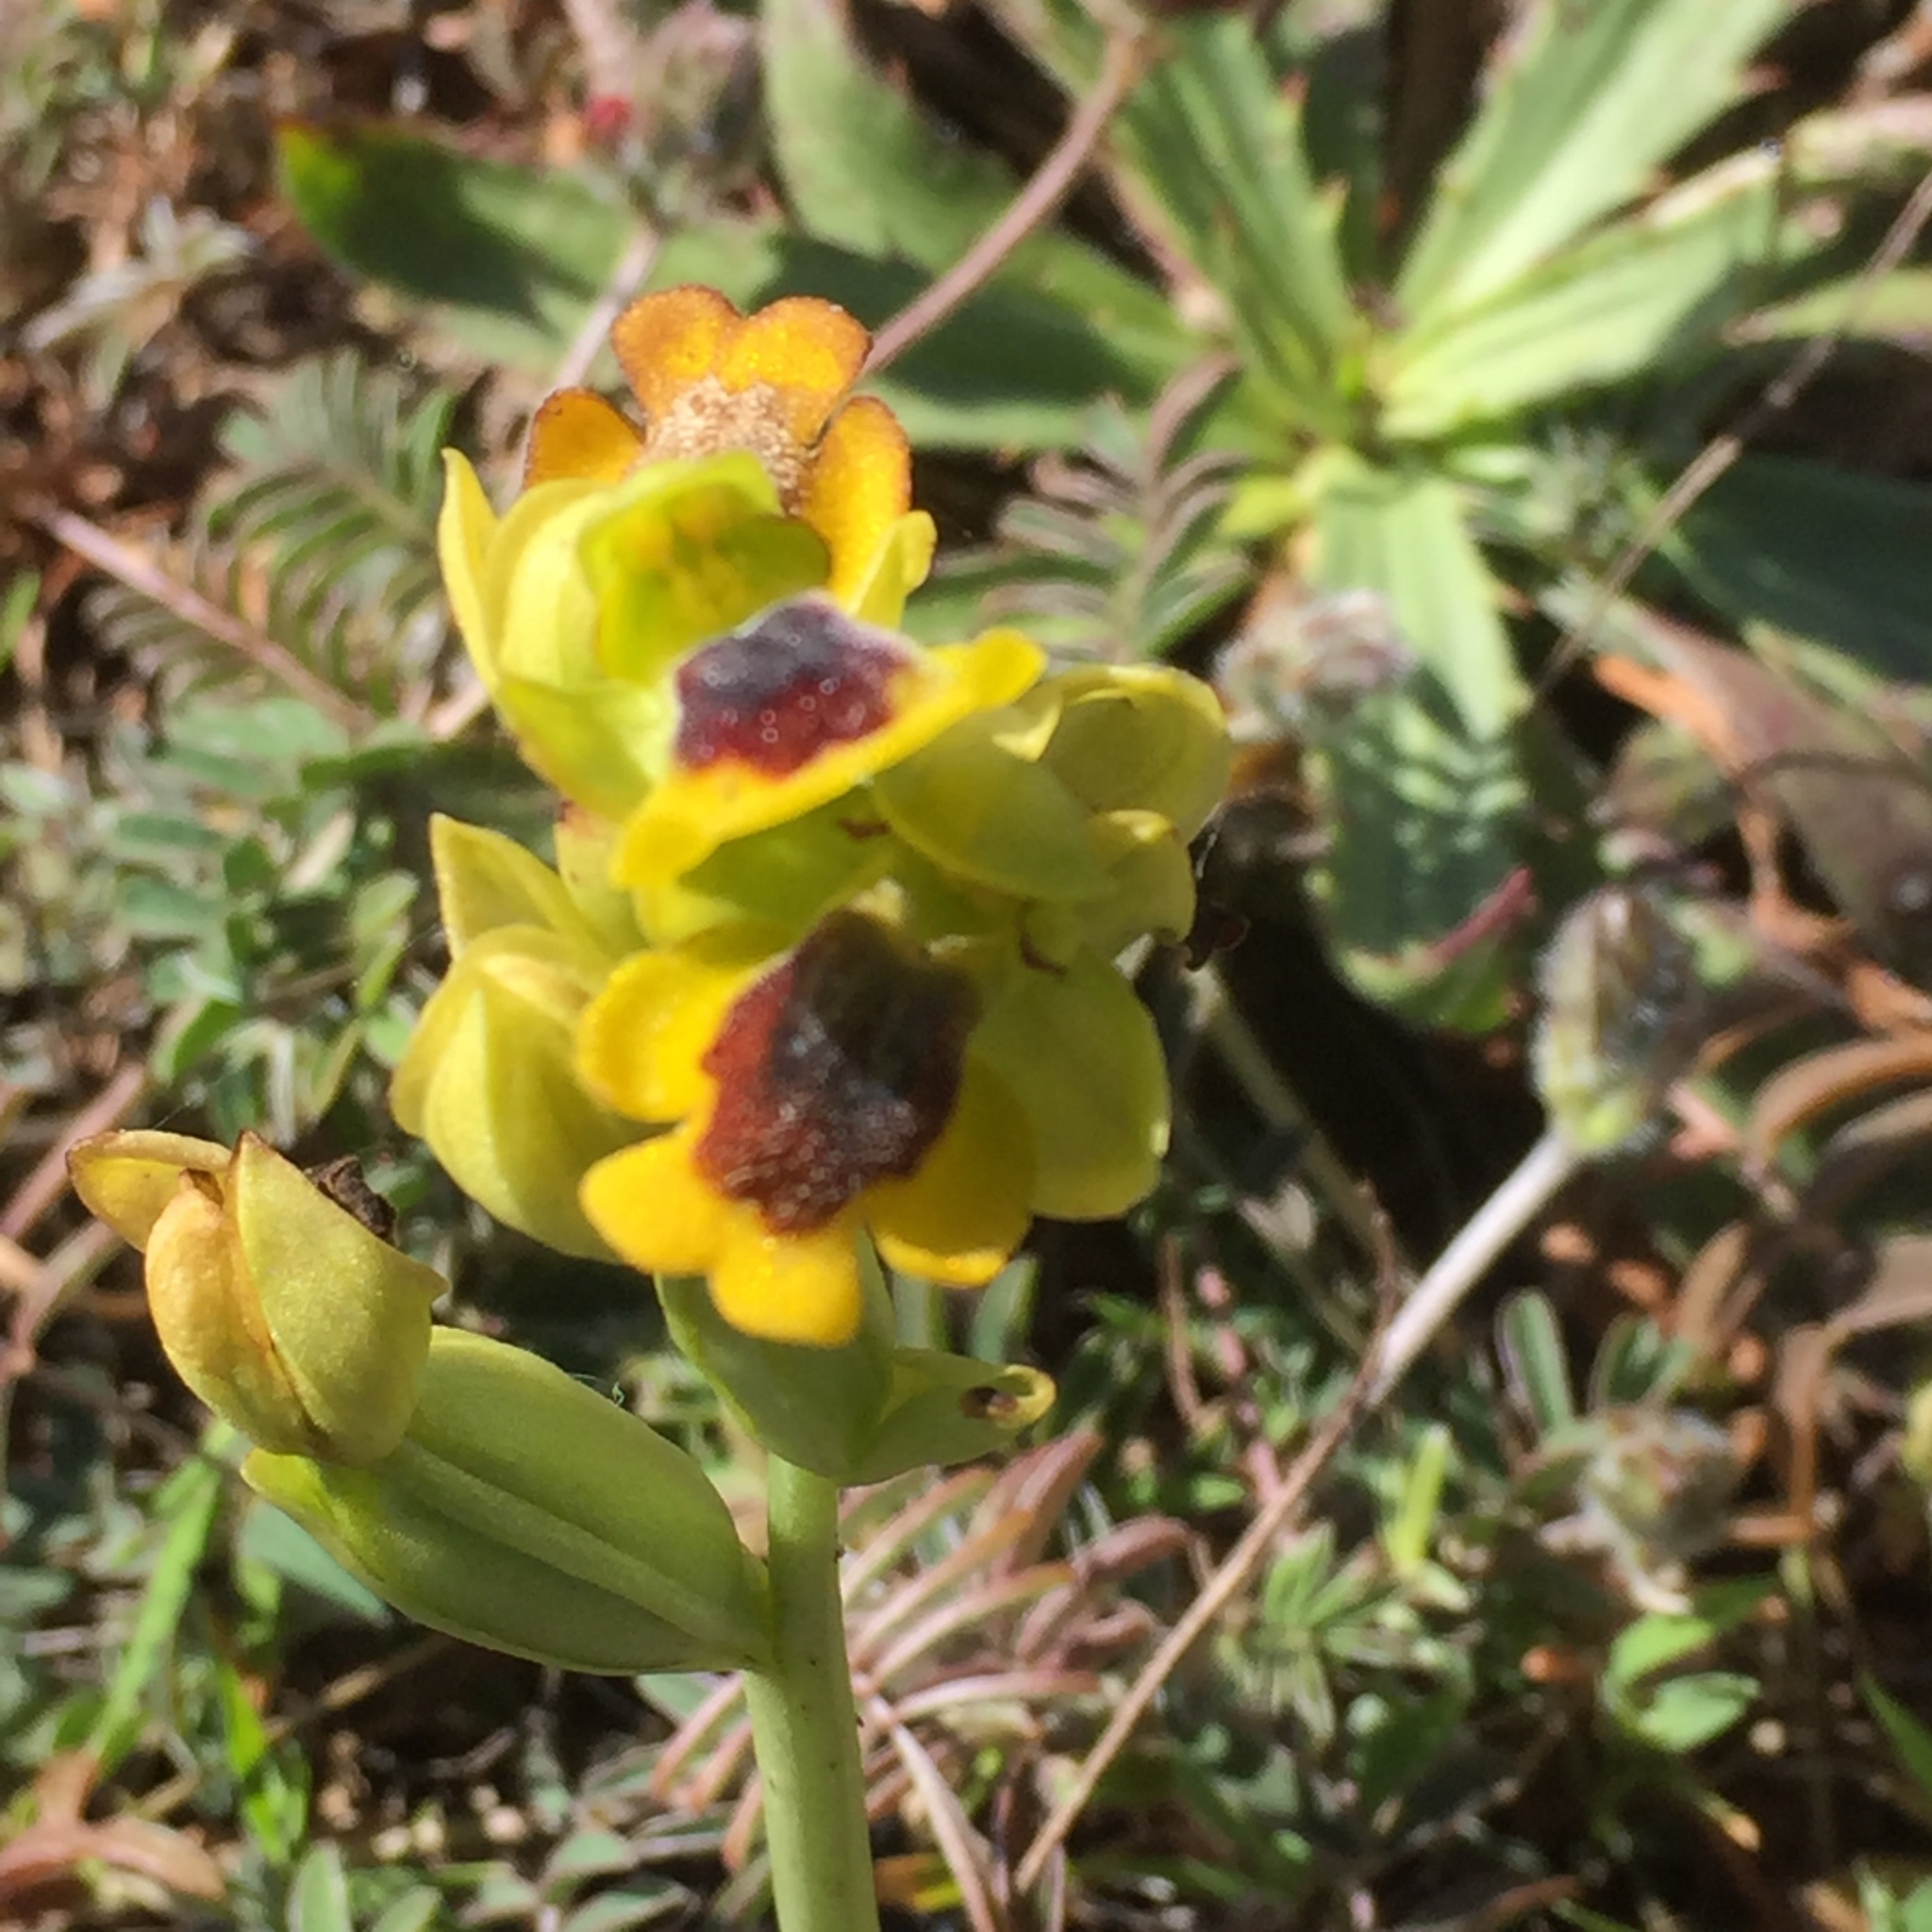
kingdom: Plantae
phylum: Tracheophyta
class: Liliopsida
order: Asparagales
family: Orchidaceae
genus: Ophrys
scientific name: Ophrys lutea
